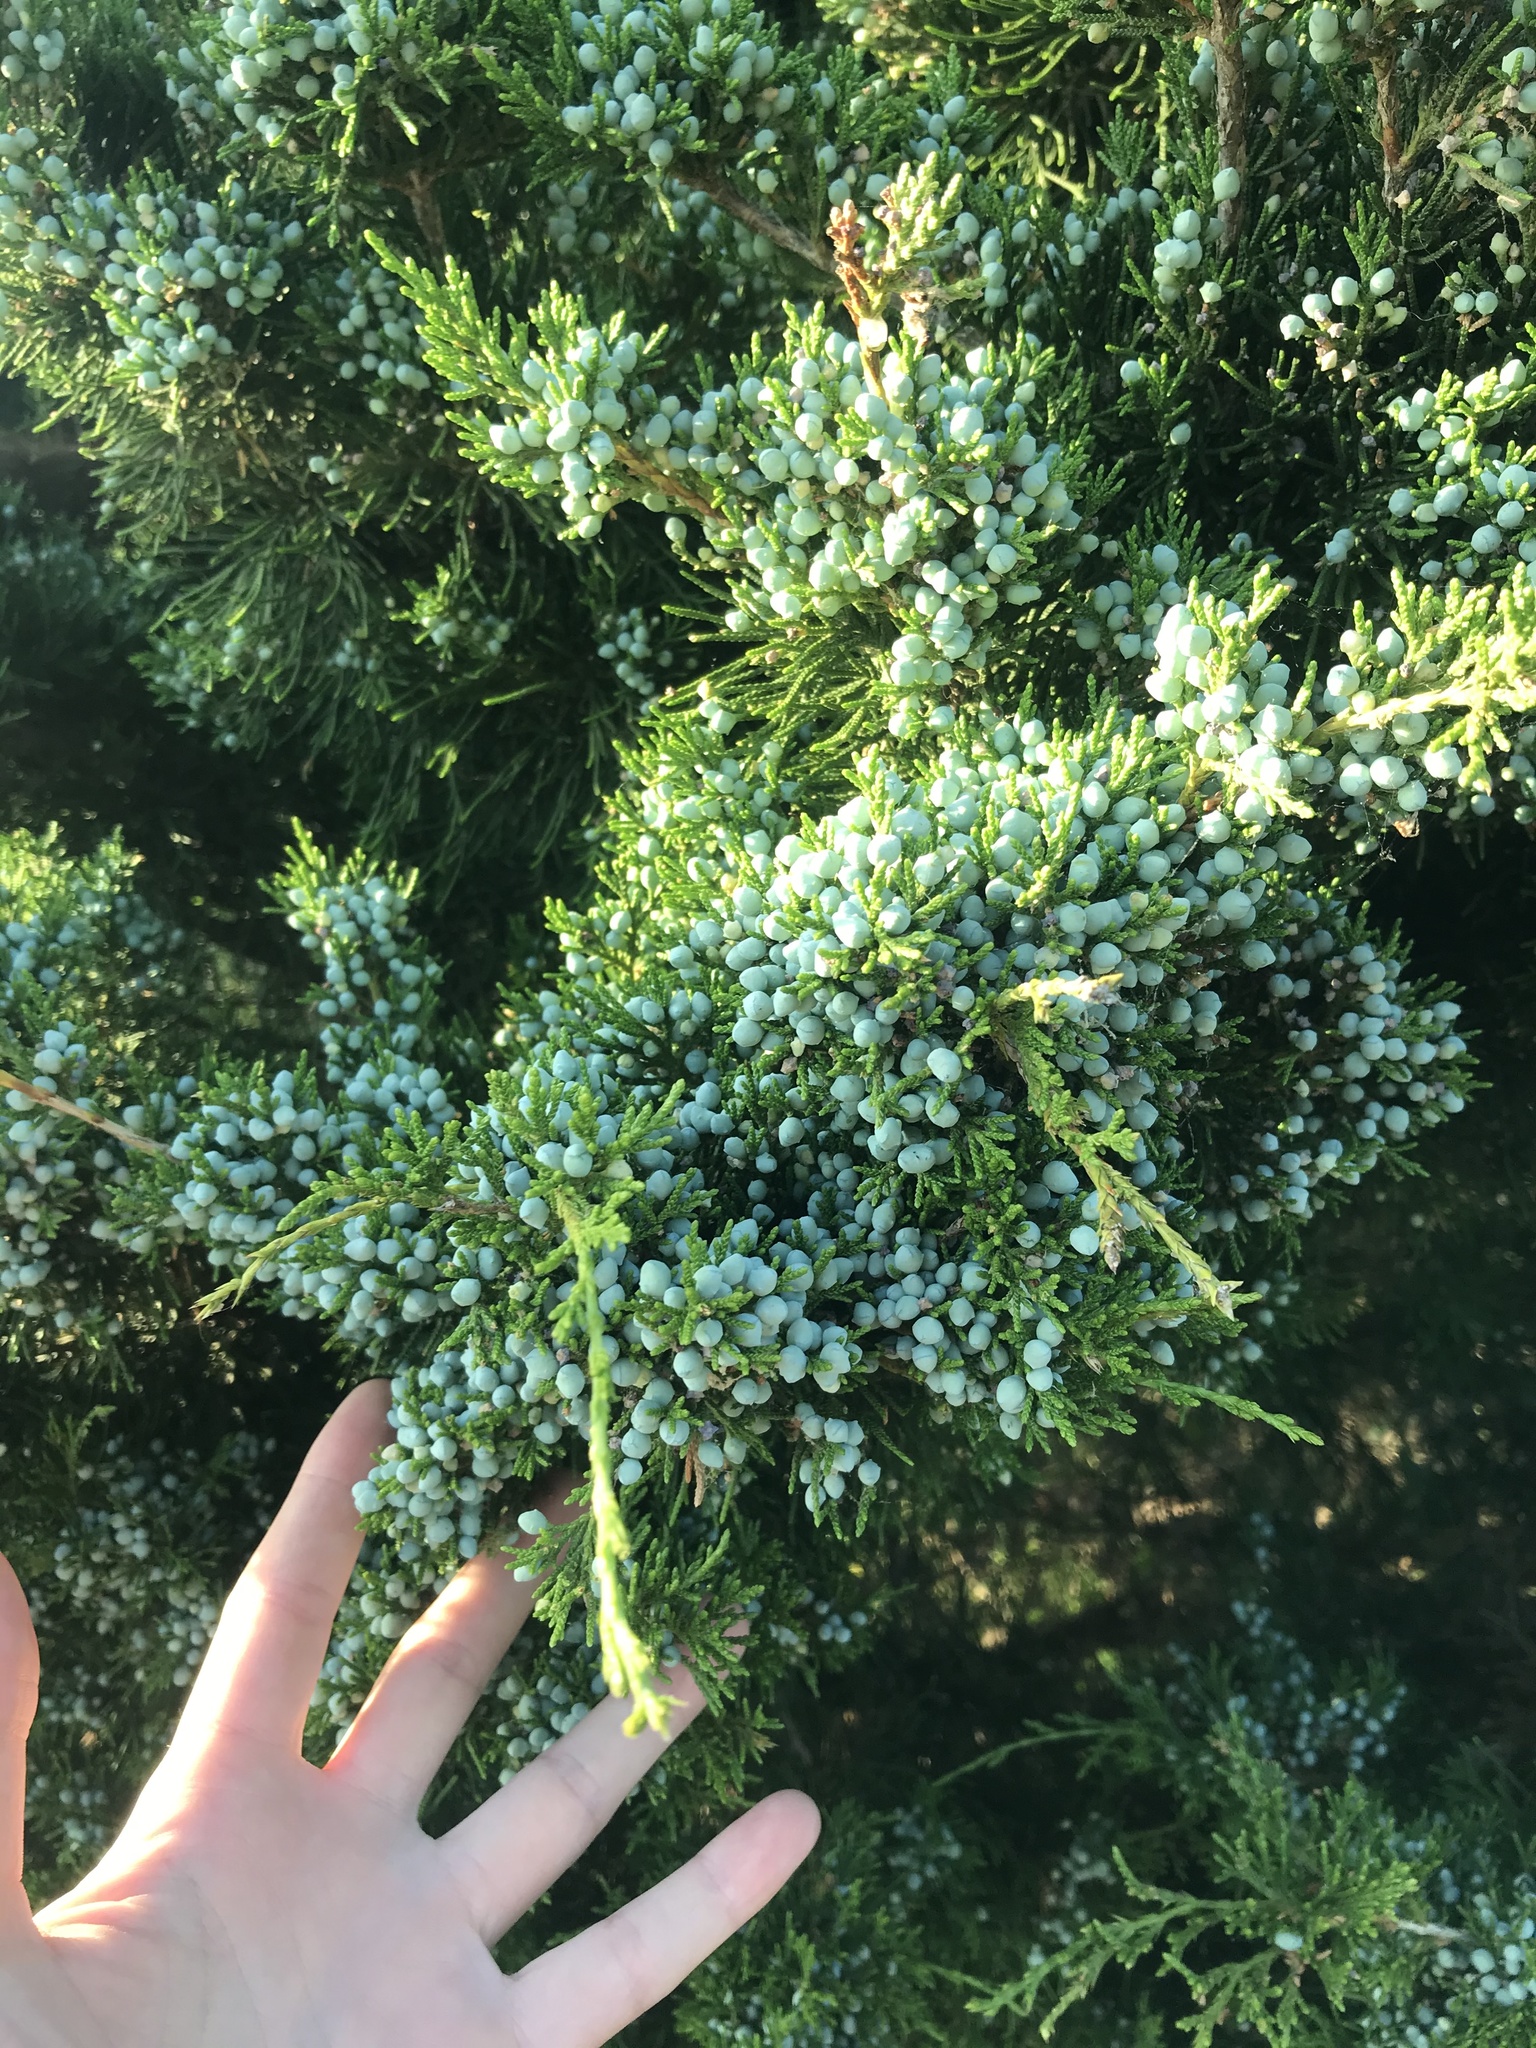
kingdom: Plantae
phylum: Tracheophyta
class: Pinopsida
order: Pinales
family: Cupressaceae
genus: Juniperus
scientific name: Juniperus virginiana
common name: Red juniper
